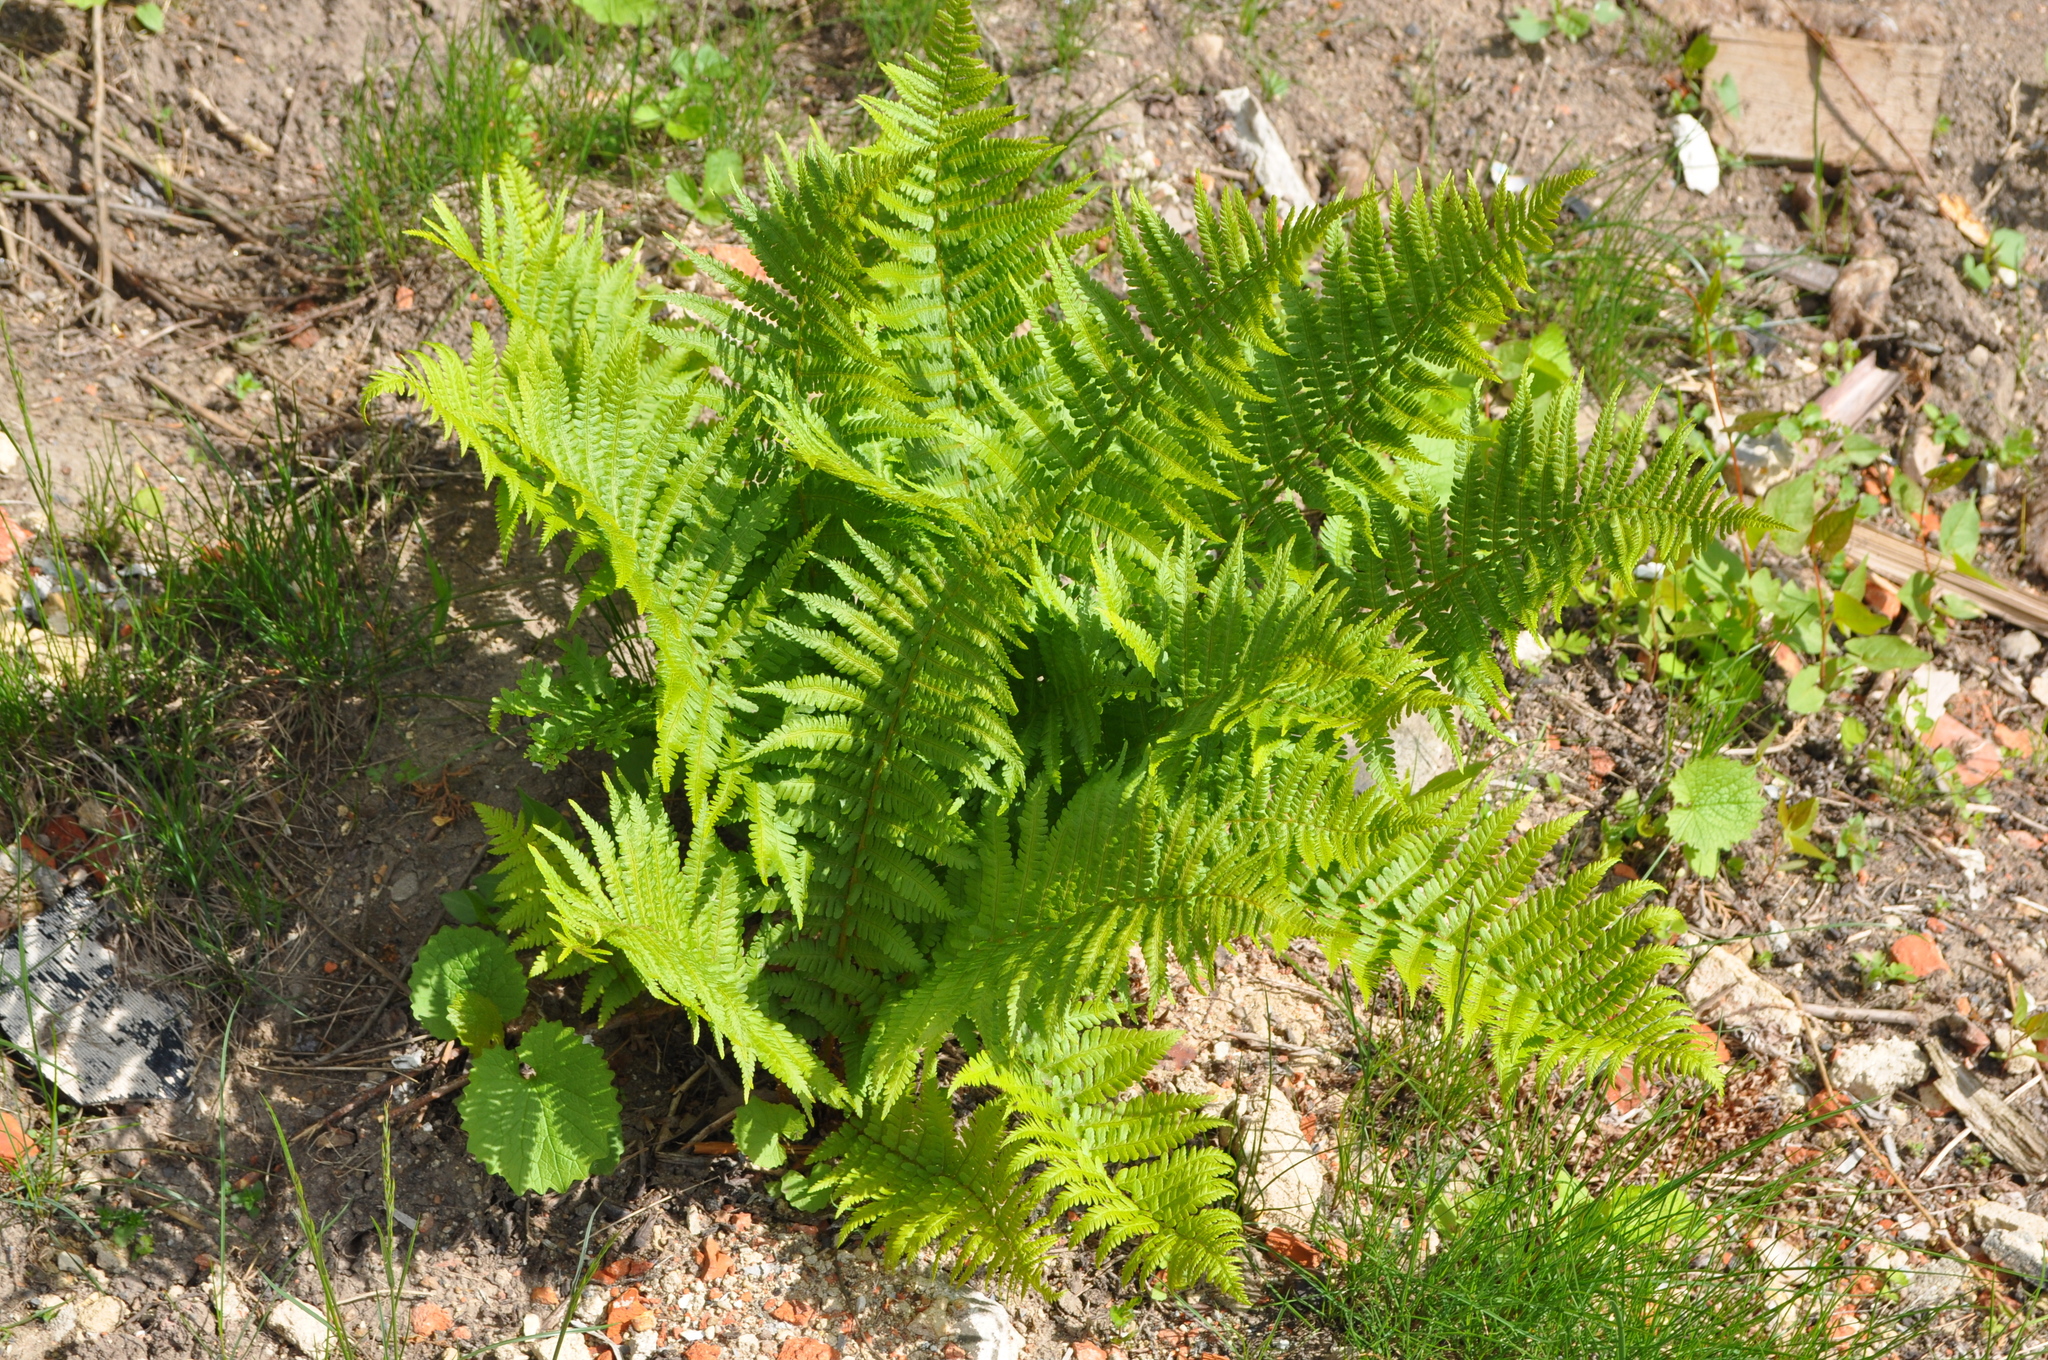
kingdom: Plantae
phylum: Tracheophyta
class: Polypodiopsida
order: Polypodiales
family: Dryopteridaceae
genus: Dryopteris
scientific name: Dryopteris filix-mas
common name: Male fern
